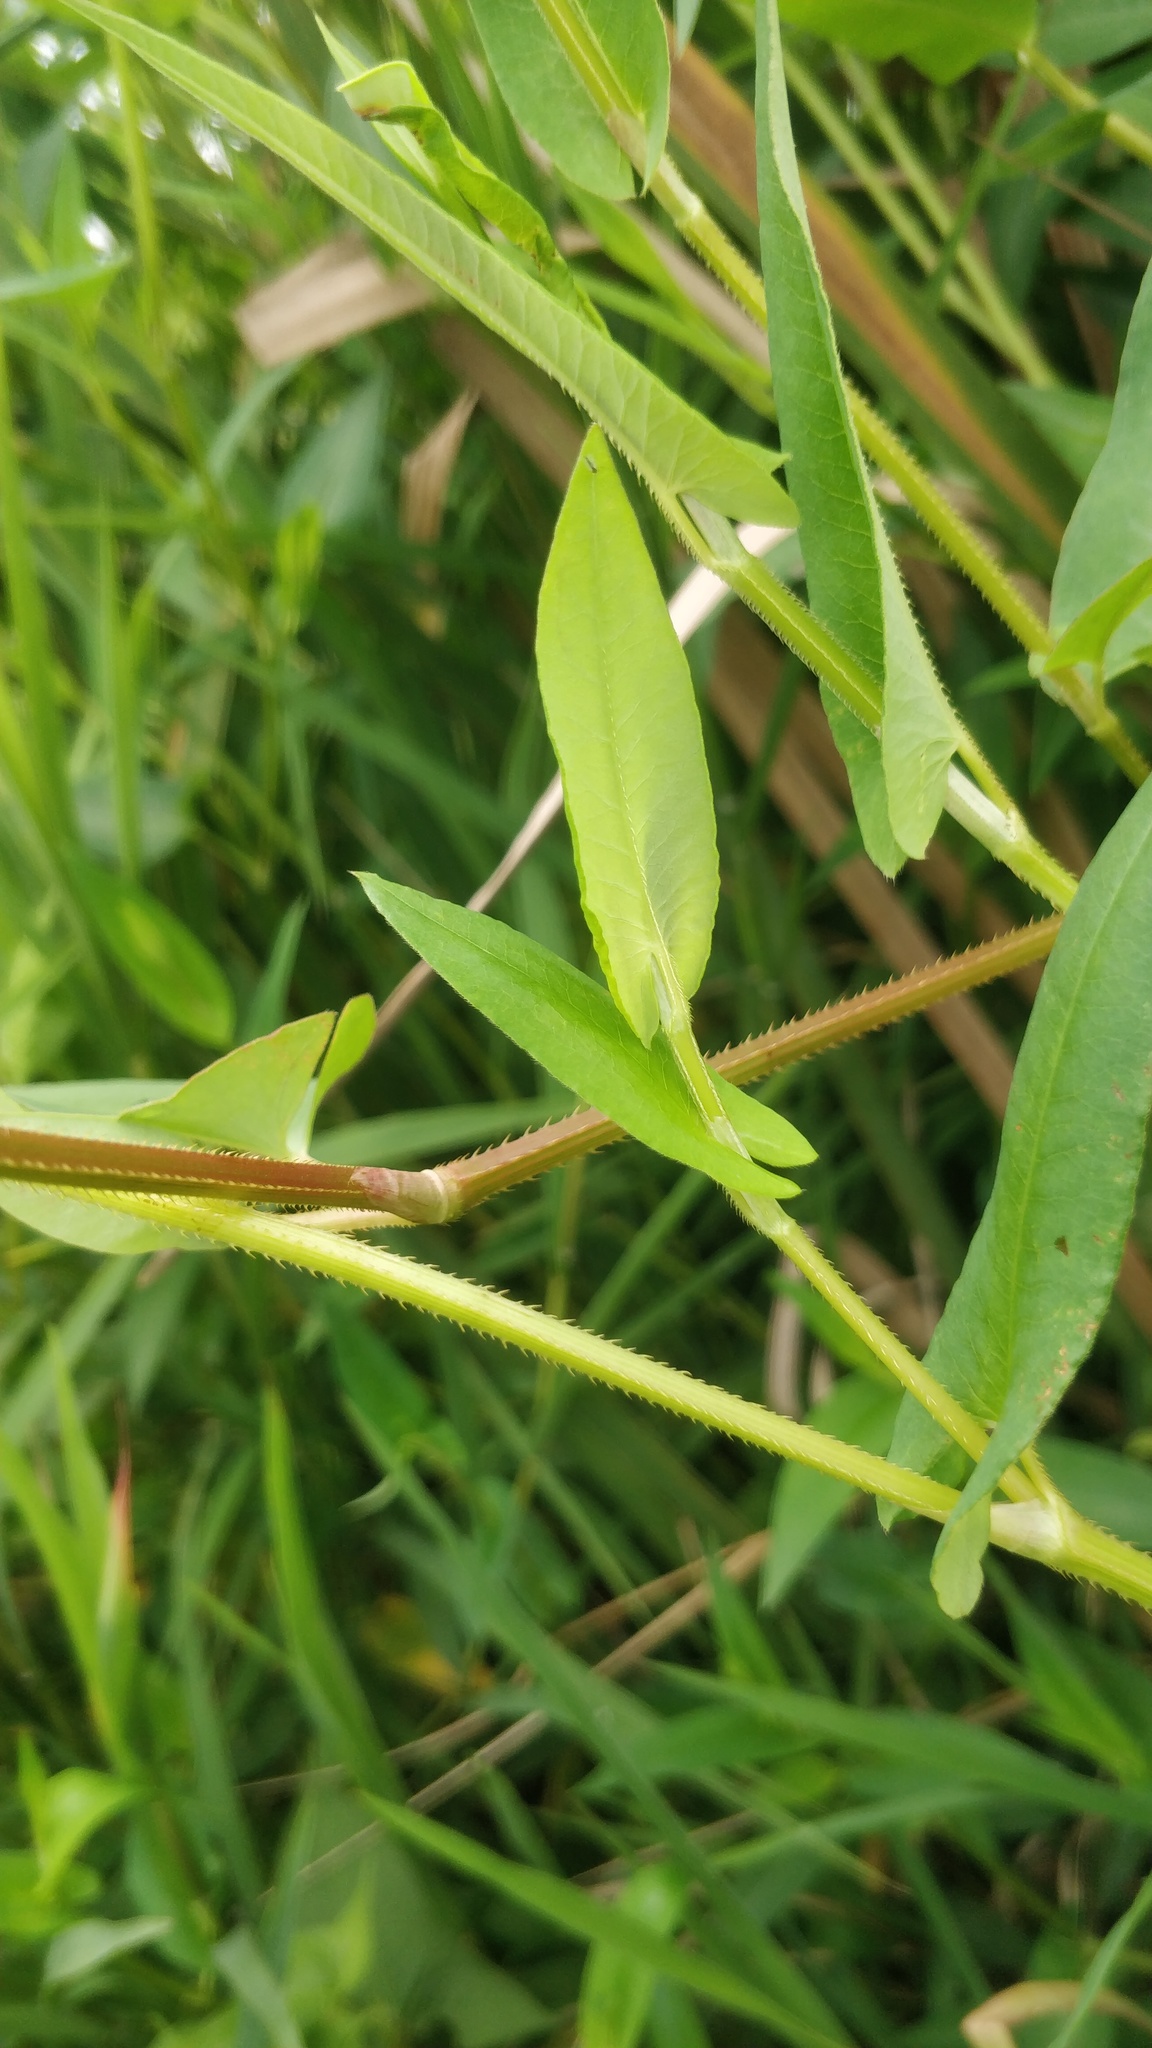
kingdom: Plantae
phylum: Tracheophyta
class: Magnoliopsida
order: Caryophyllales
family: Polygonaceae
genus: Persicaria
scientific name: Persicaria sagittata
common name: American tearthumb
